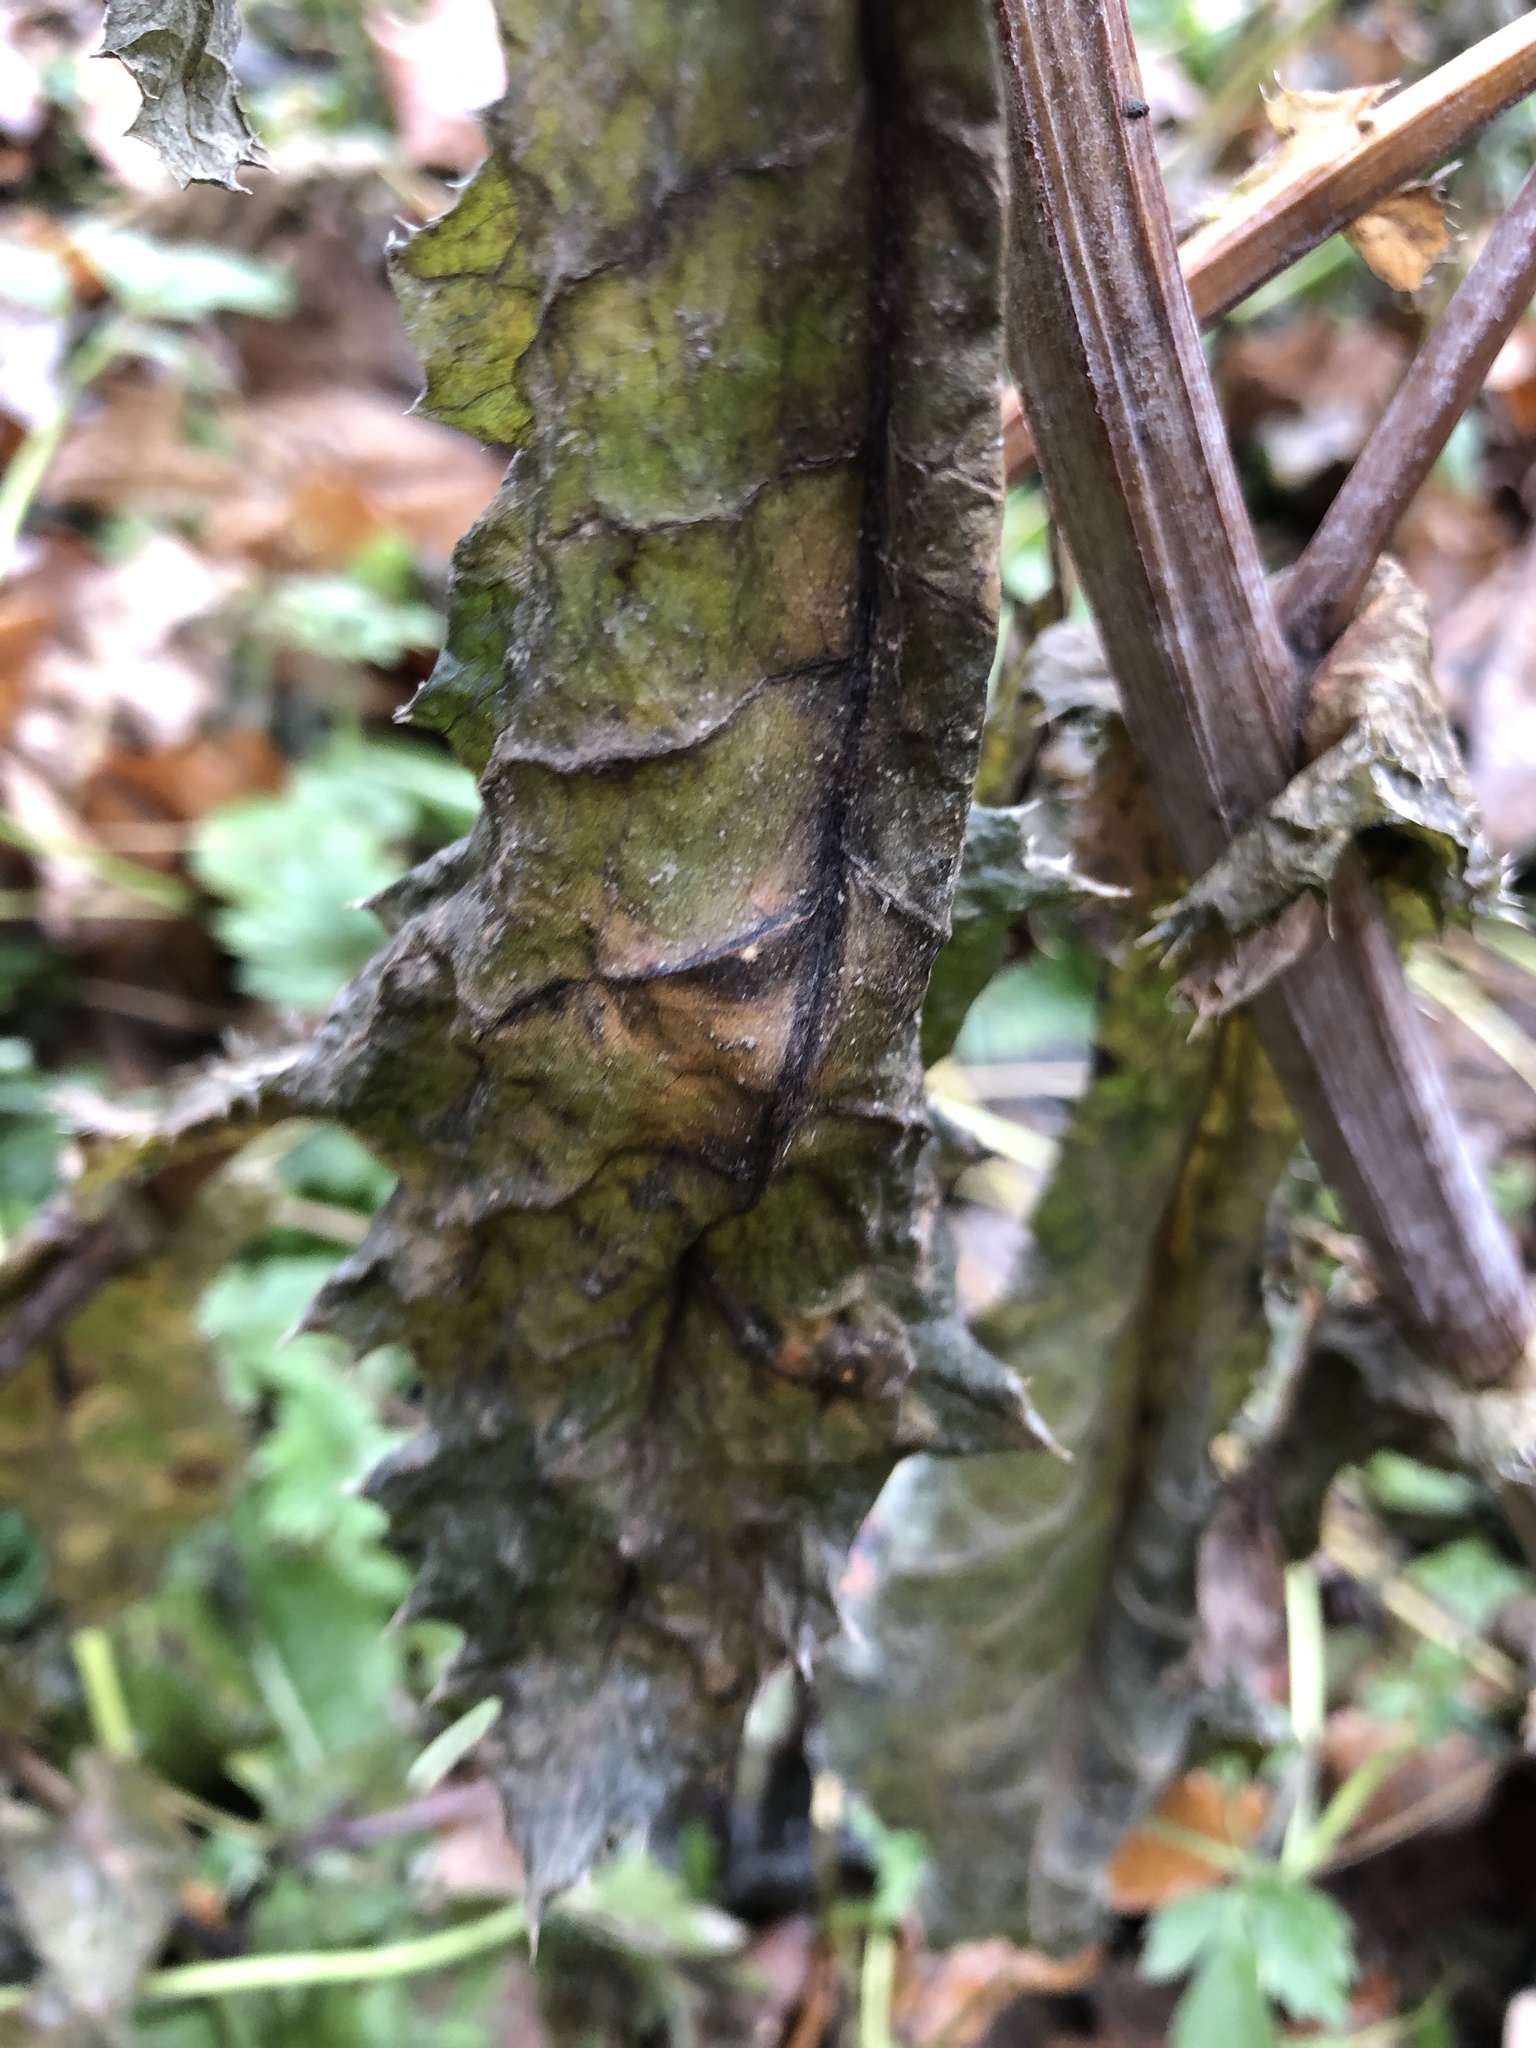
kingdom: Plantae
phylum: Tracheophyta
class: Magnoliopsida
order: Asterales
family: Asteraceae
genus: Sonchus
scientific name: Sonchus asper
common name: Prickly sow-thistle
